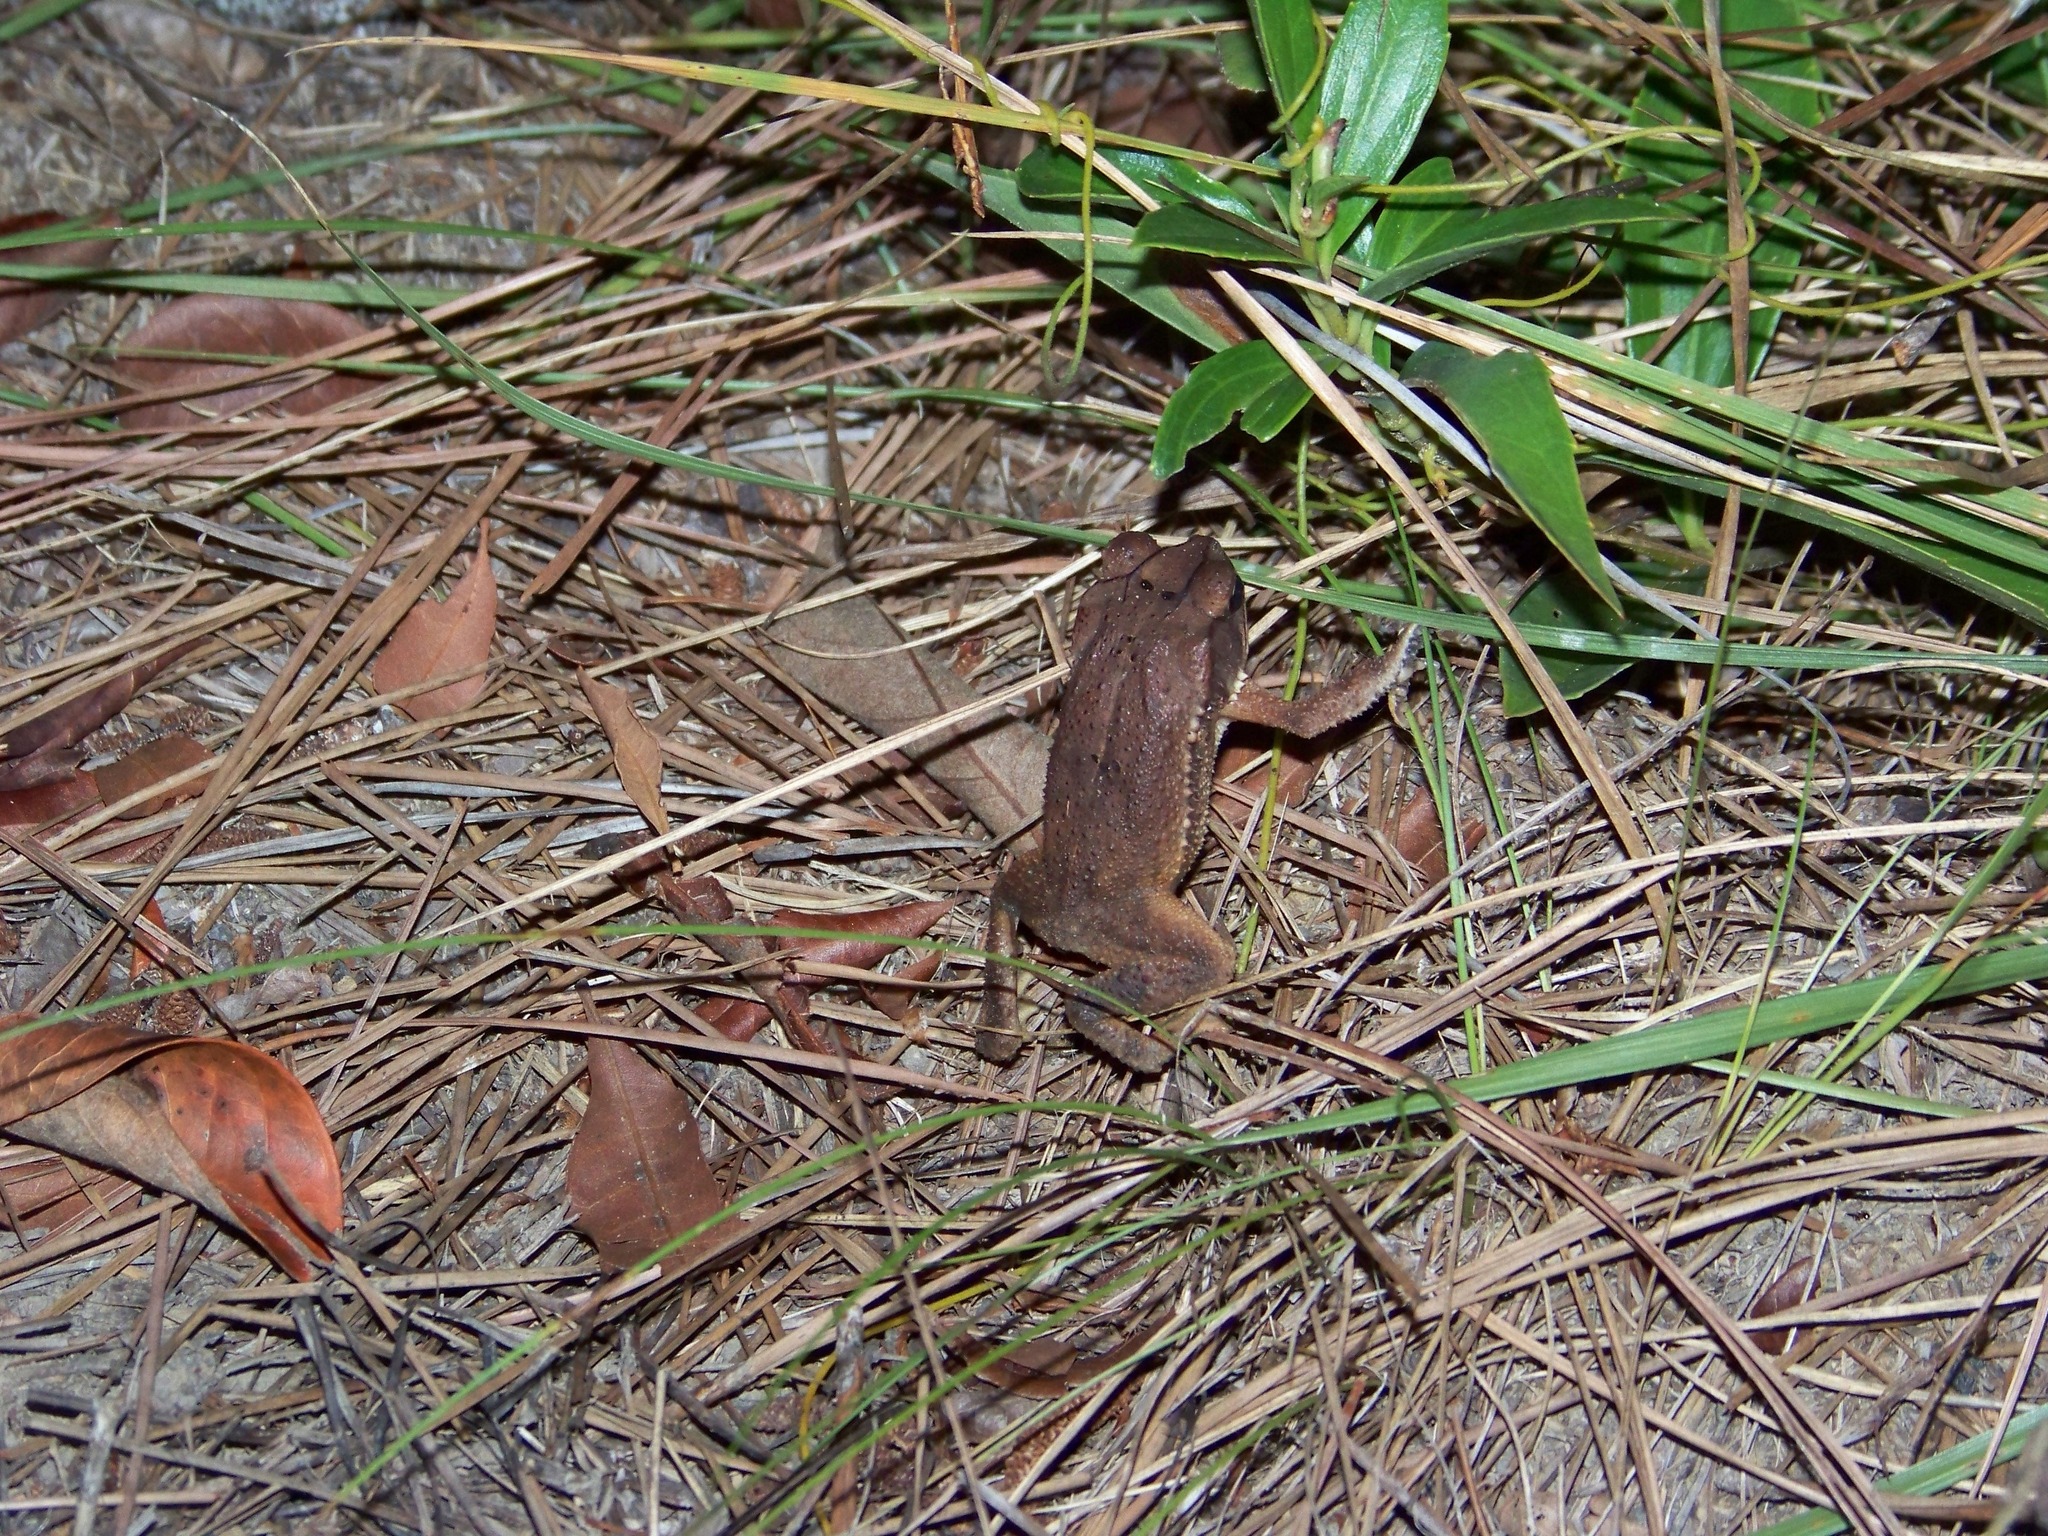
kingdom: Animalia
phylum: Chordata
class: Amphibia
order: Anura
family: Bufonidae
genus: Incilius
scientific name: Incilius valliceps
